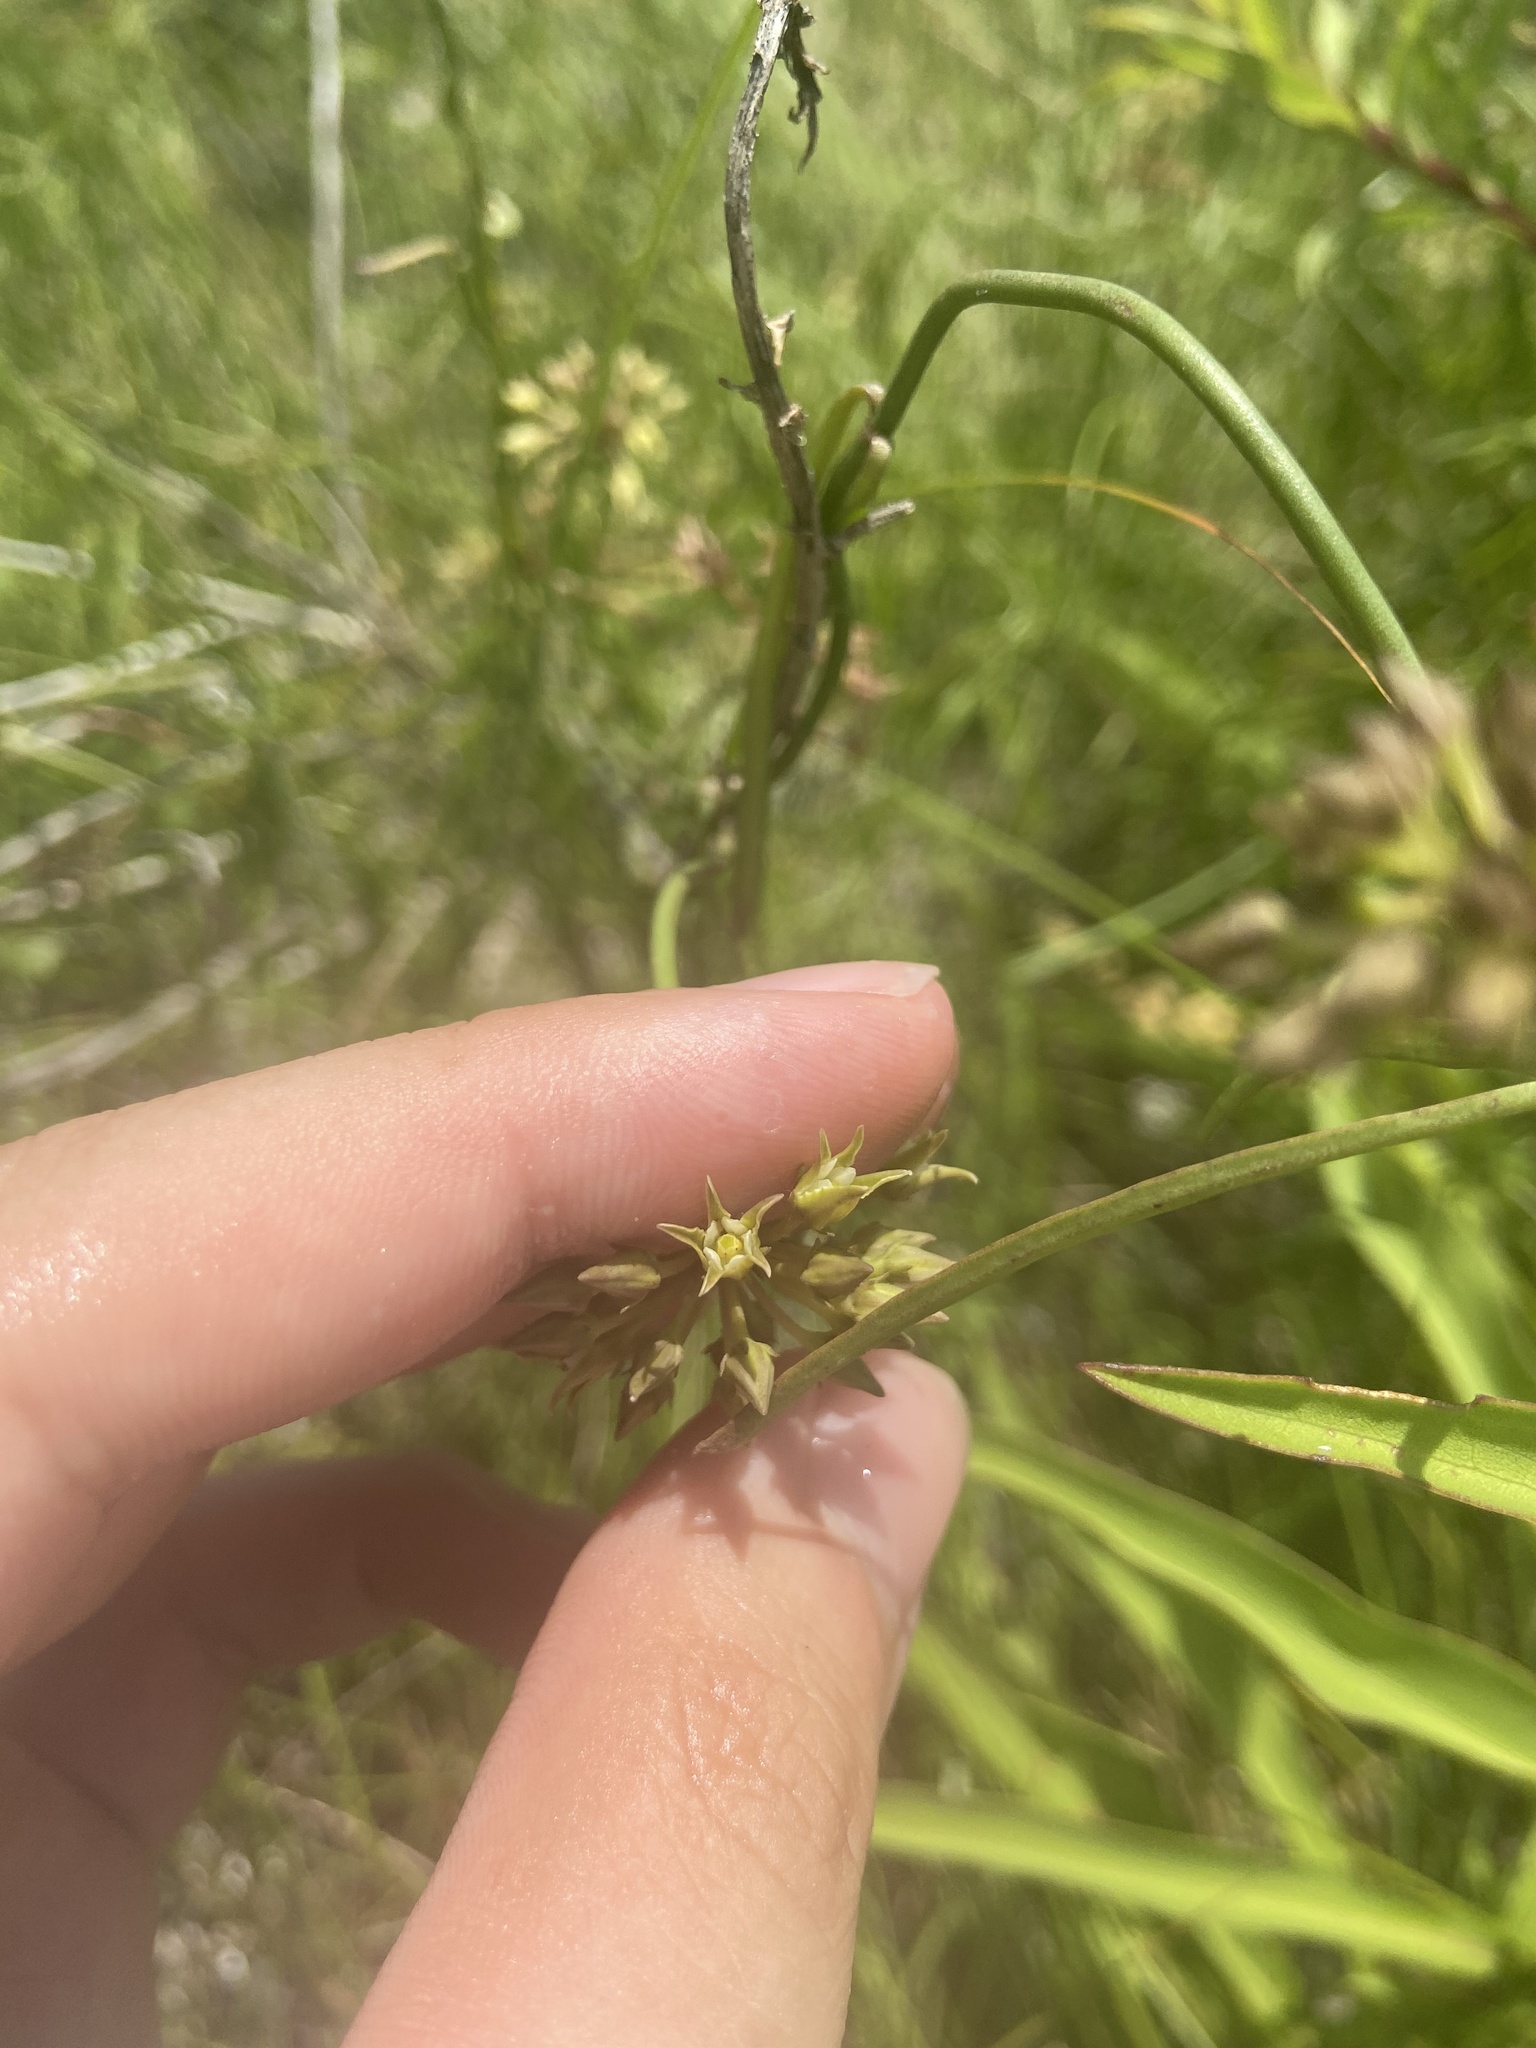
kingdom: Plantae
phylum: Tracheophyta
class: Magnoliopsida
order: Gentianales
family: Apocynaceae
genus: Pattalias
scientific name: Pattalias
